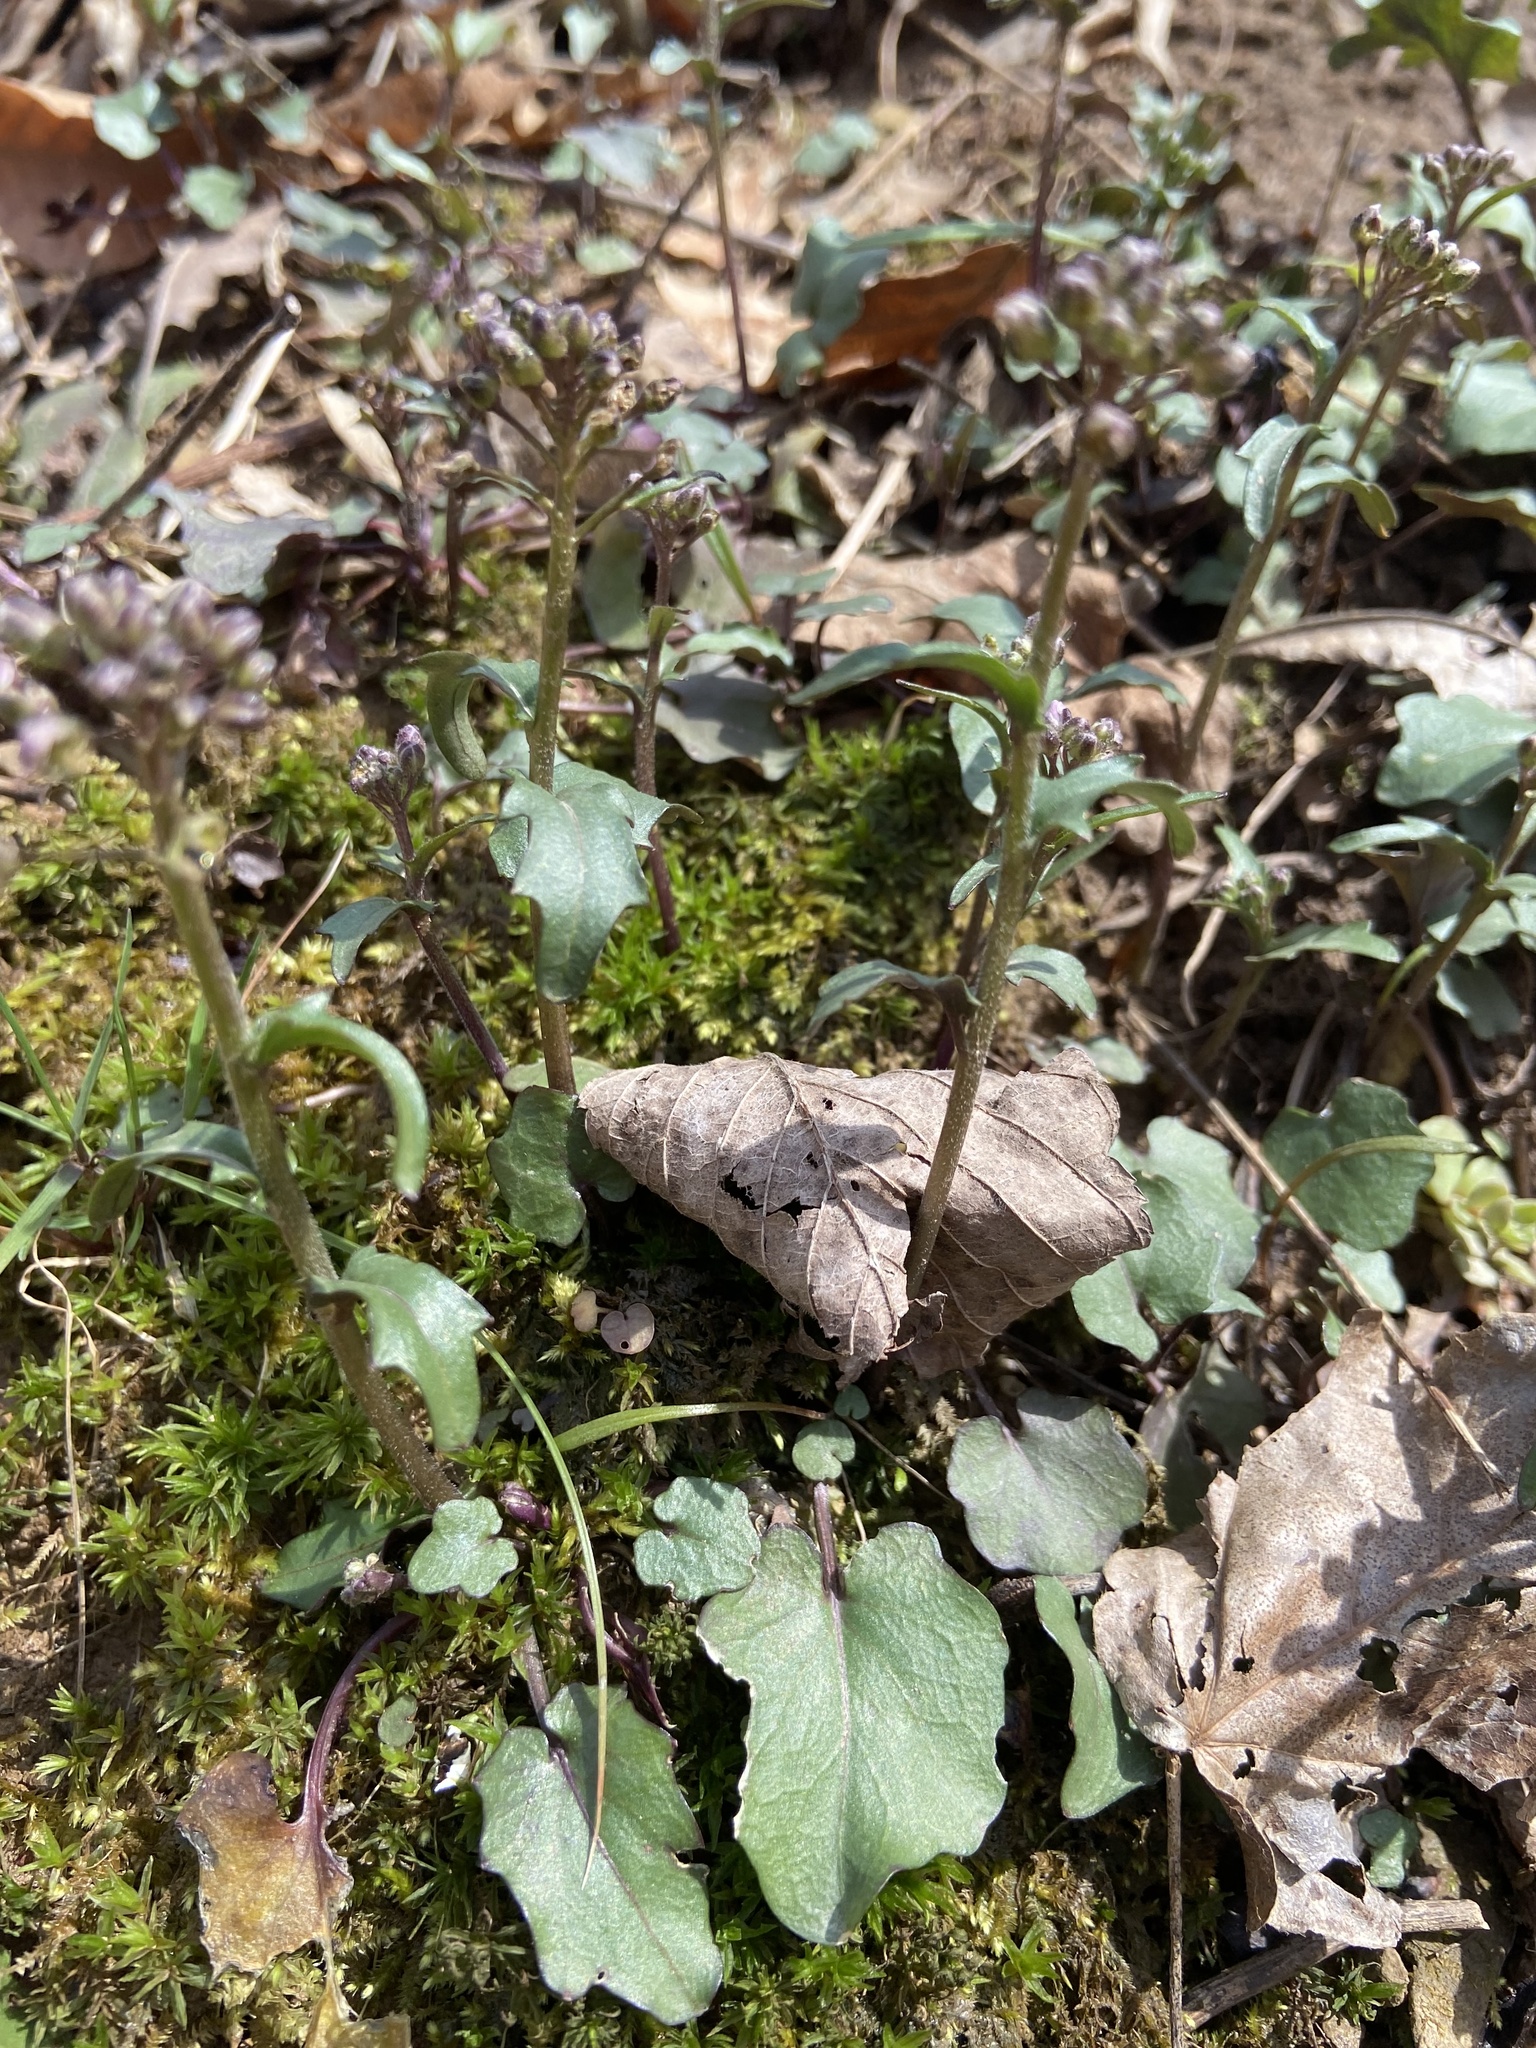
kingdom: Plantae
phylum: Tracheophyta
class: Magnoliopsida
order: Brassicales
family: Brassicaceae
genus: Cardamine
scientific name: Cardamine douglassii
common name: Purple cress
